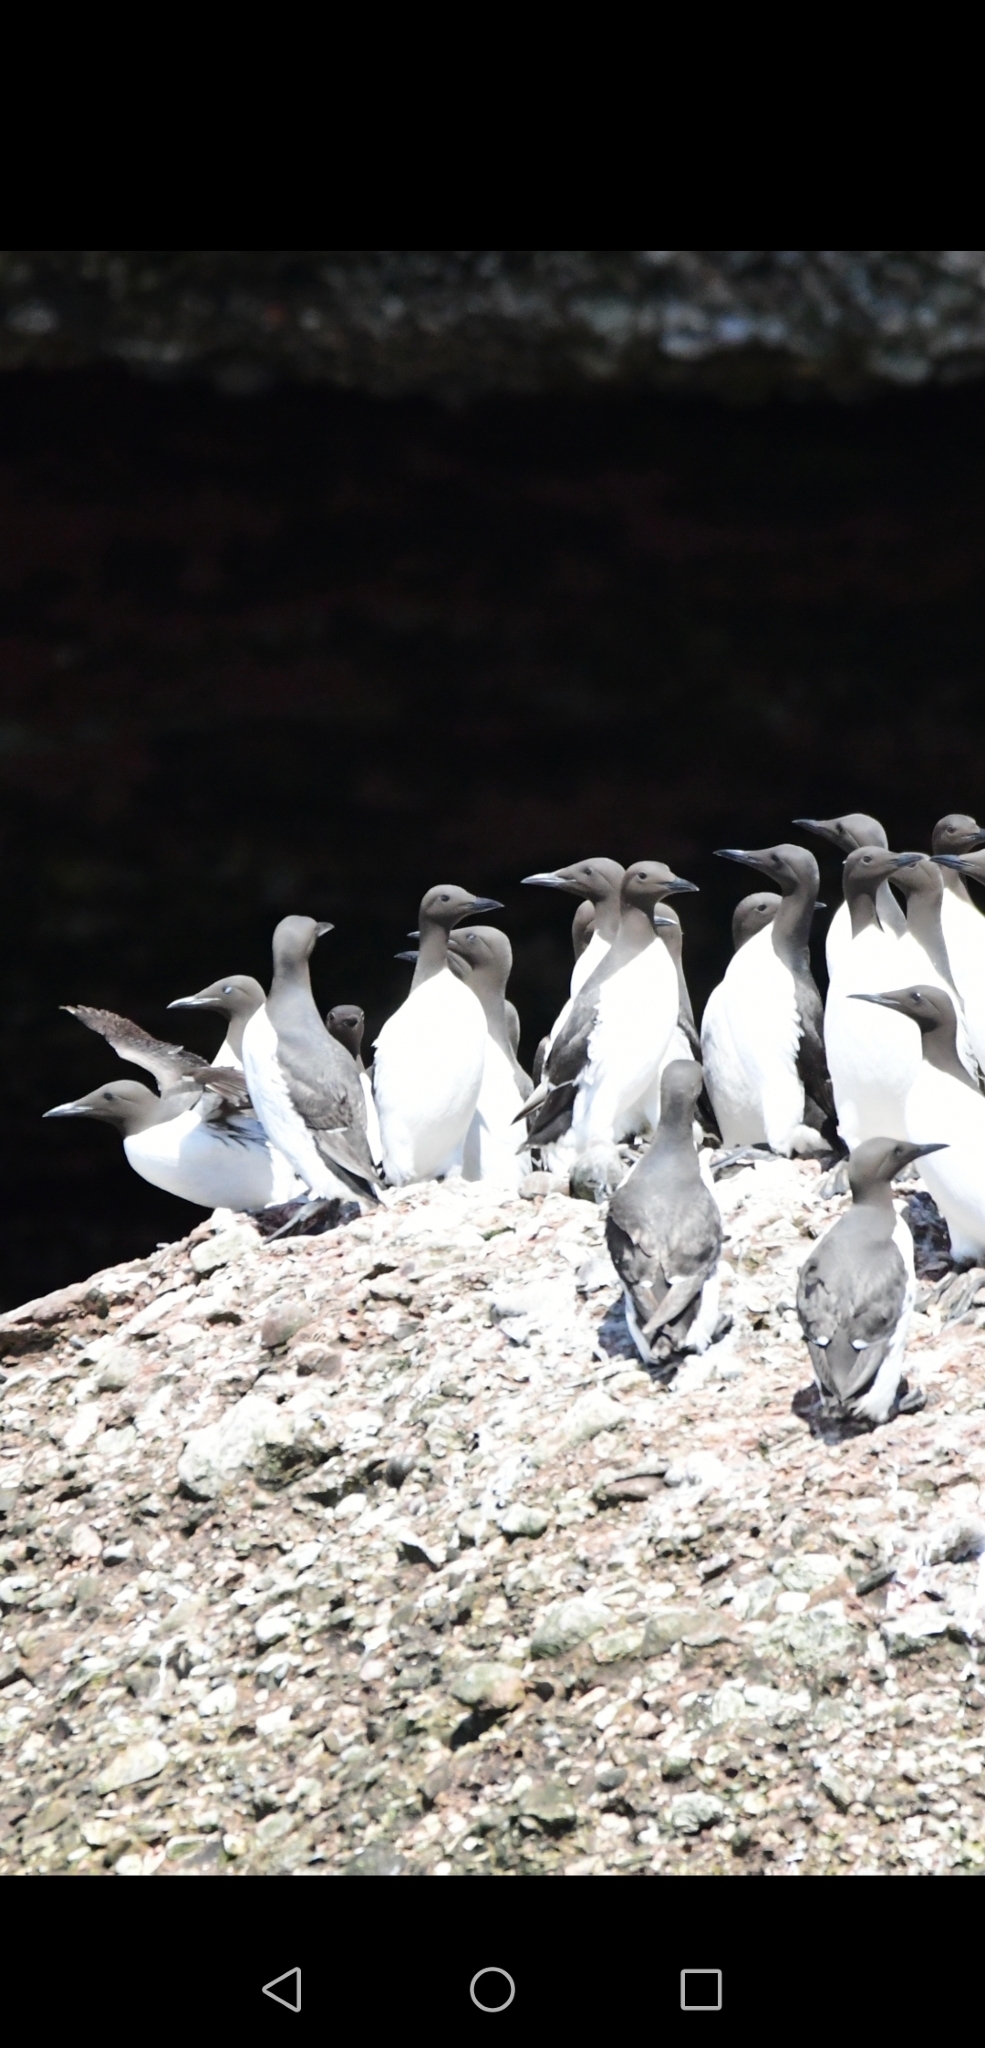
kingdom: Animalia
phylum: Chordata
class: Aves
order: Charadriiformes
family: Alcidae
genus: Uria
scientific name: Uria aalge
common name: Common murre
